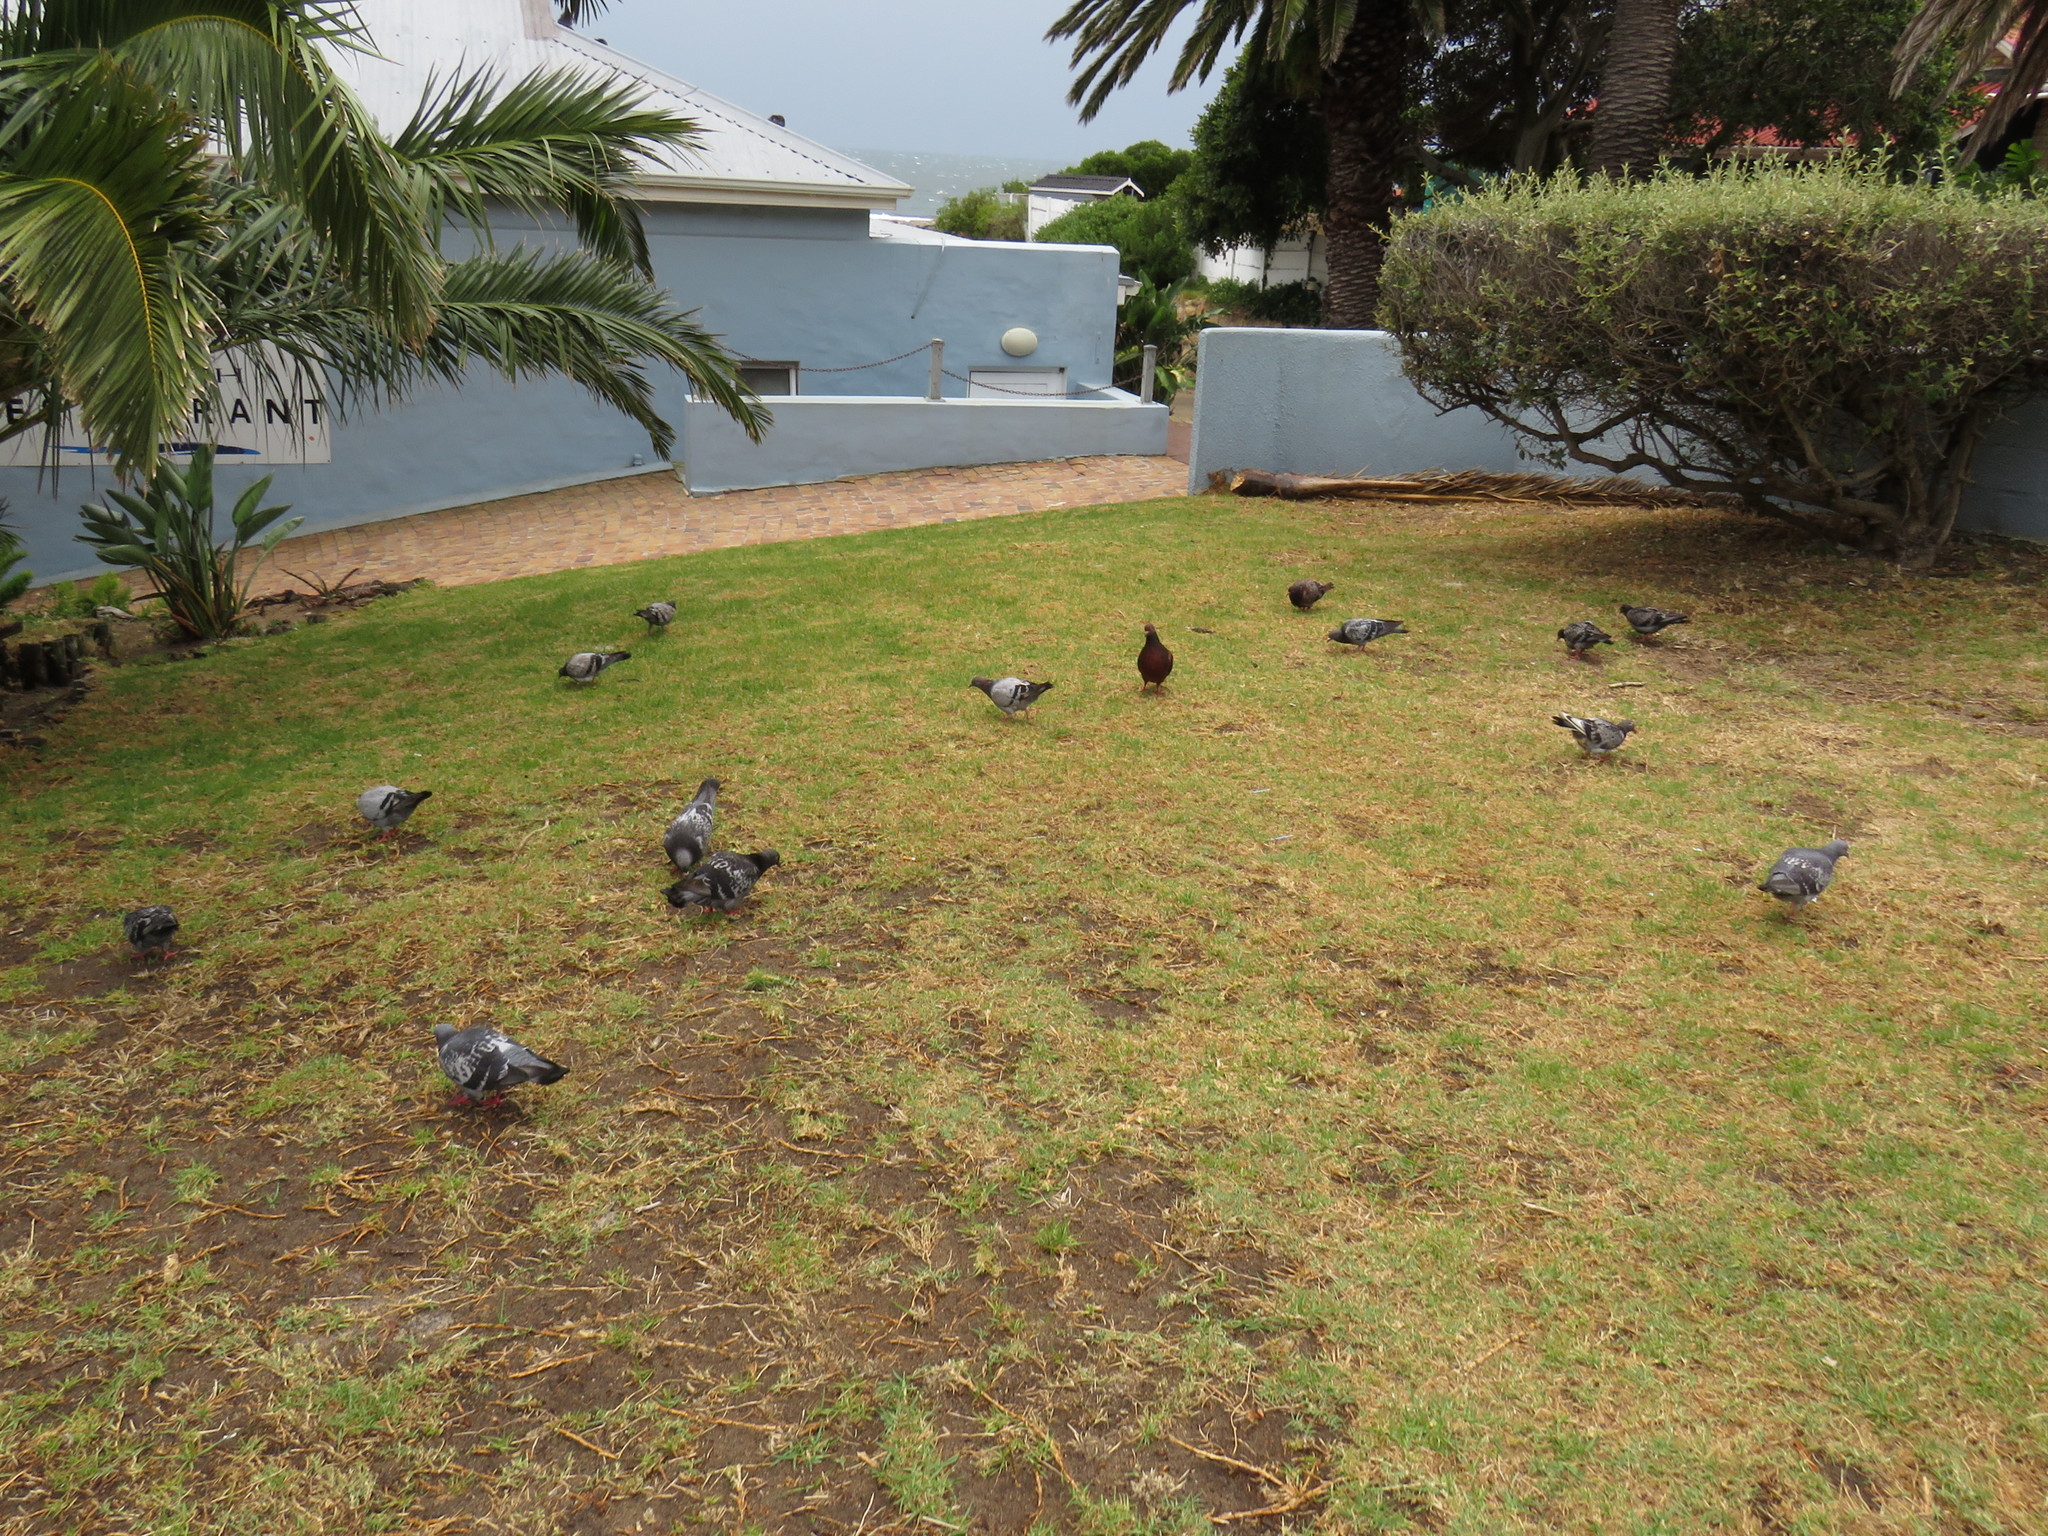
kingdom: Animalia
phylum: Chordata
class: Aves
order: Columbiformes
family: Columbidae
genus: Columba
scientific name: Columba livia
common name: Rock pigeon
